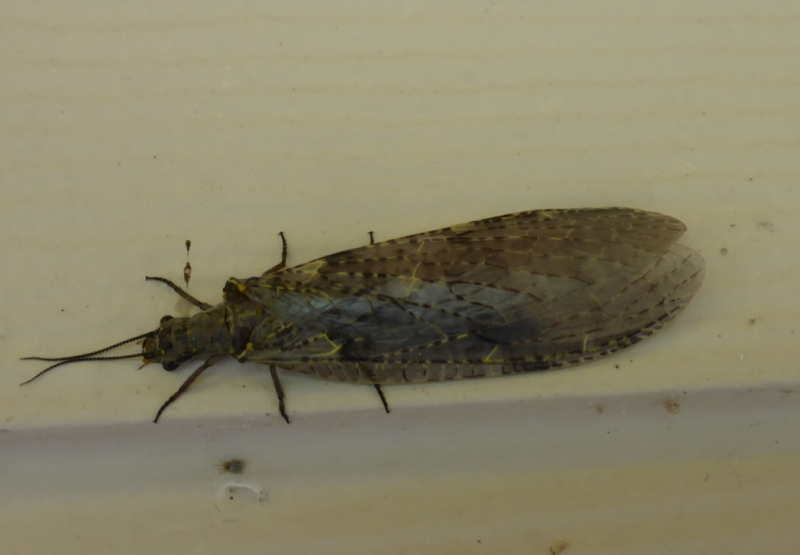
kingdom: Animalia
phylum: Arthropoda
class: Insecta
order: Megaloptera
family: Corydalidae
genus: Chauliodes
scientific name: Chauliodes rastricornis
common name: Spring fishfly
